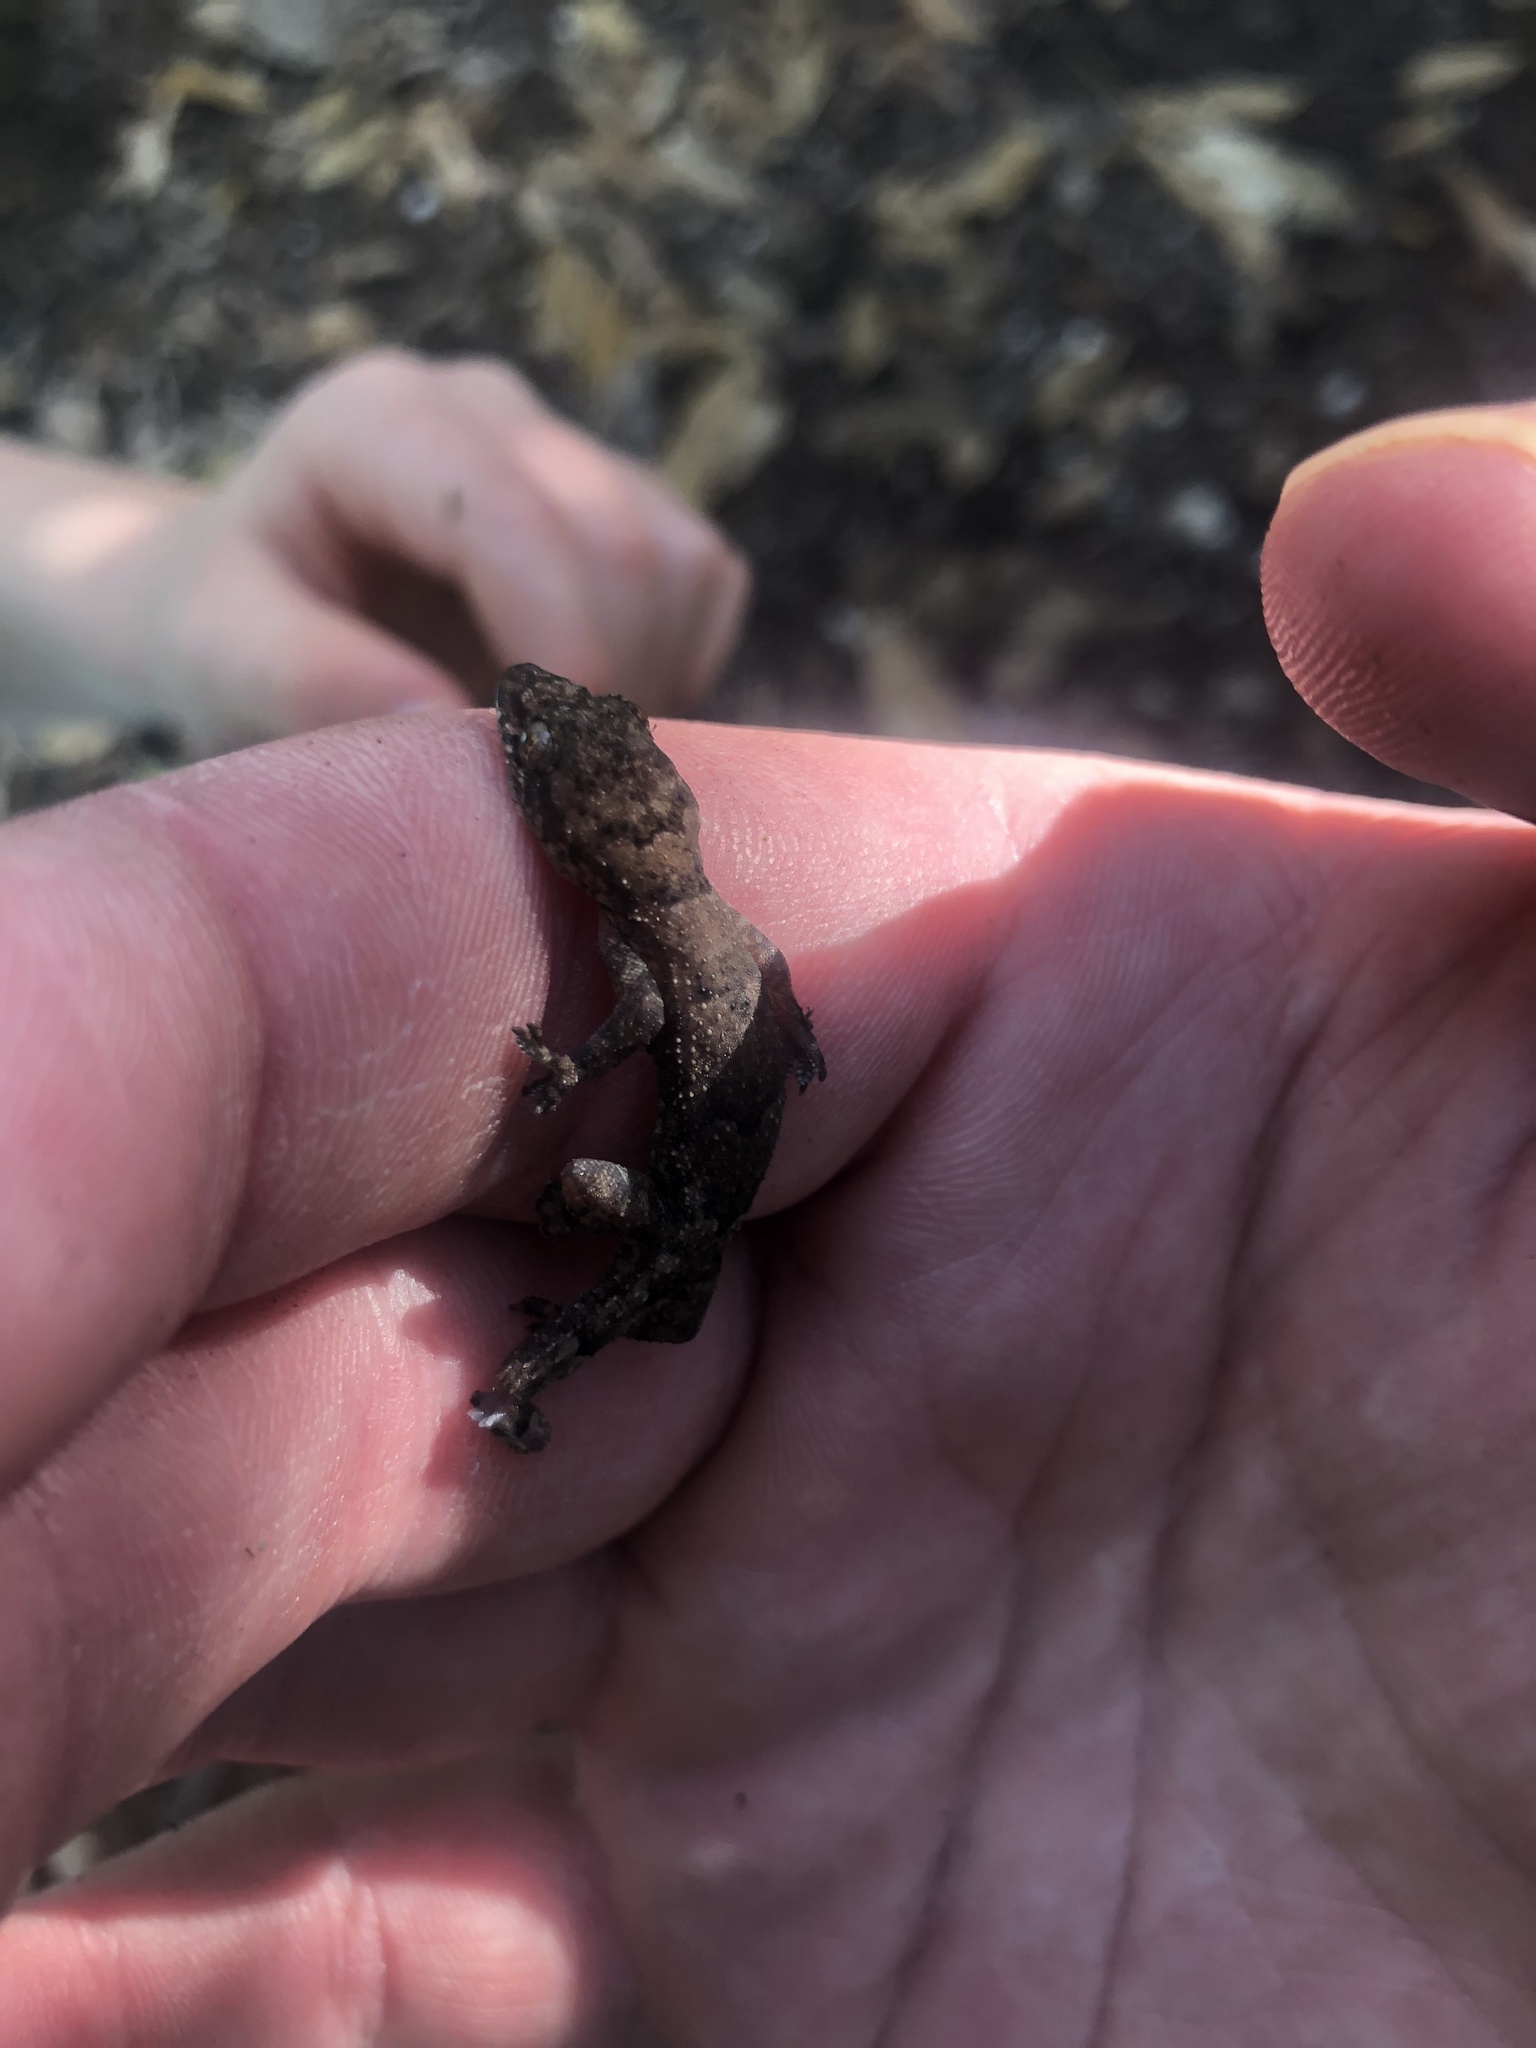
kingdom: Animalia
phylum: Chordata
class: Squamata
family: Gekkonidae
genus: Hemidactylus
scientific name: Hemidactylus mabouia
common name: House gecko
